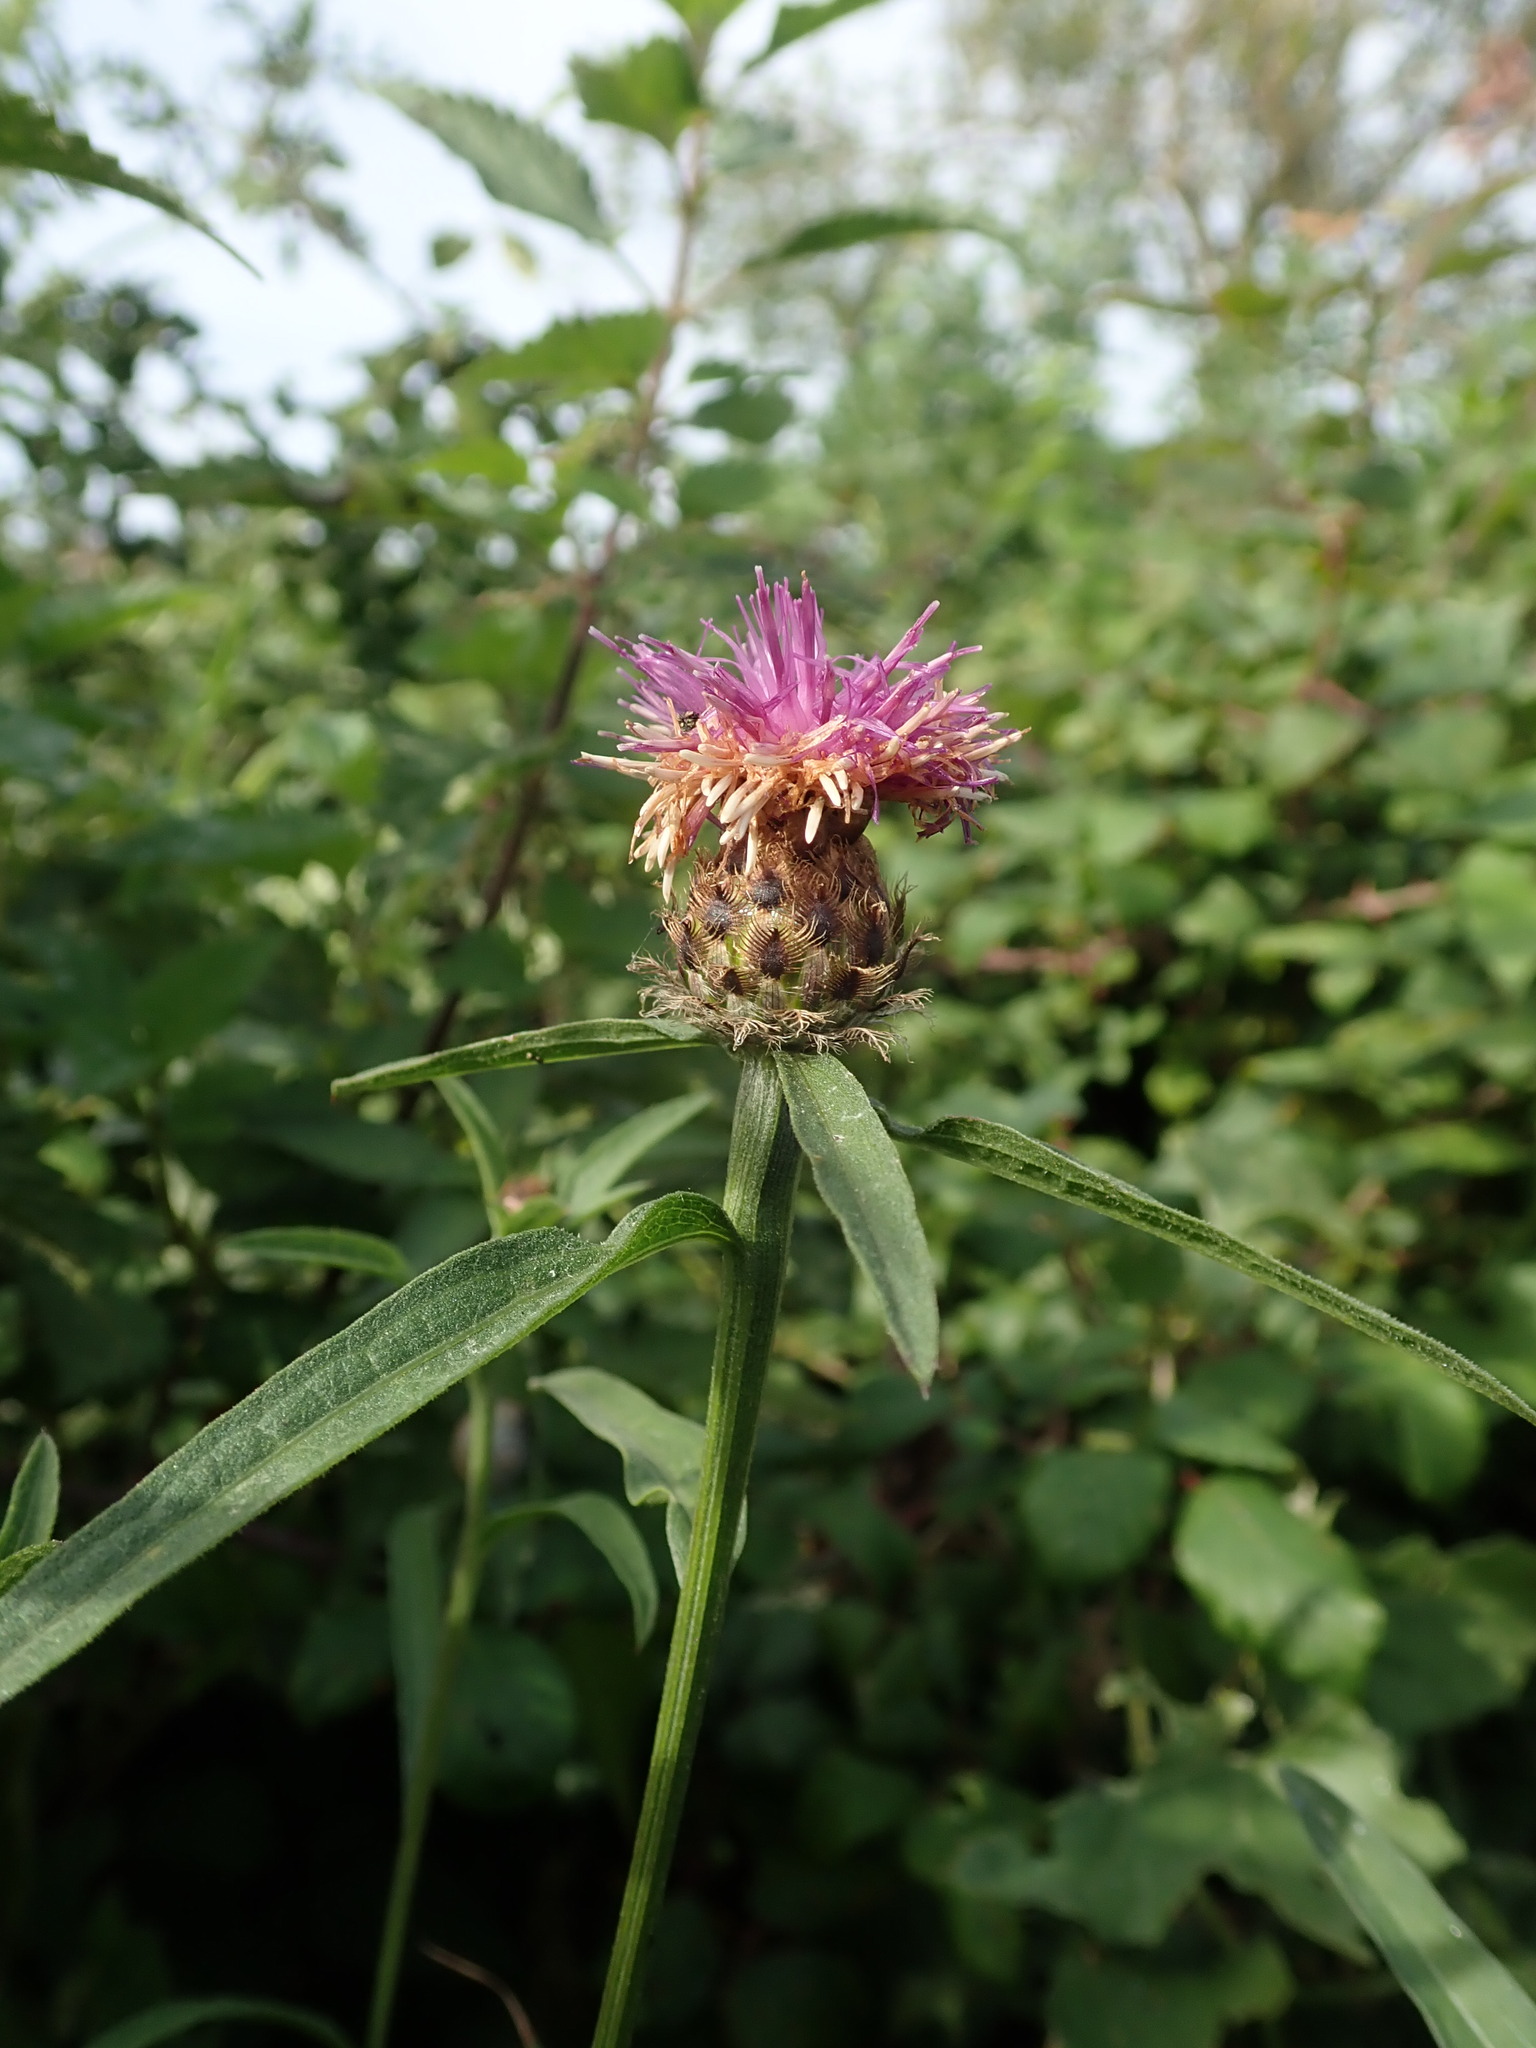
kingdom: Plantae
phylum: Tracheophyta
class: Magnoliopsida
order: Asterales
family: Asteraceae
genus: Centaurea
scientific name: Centaurea debeauxii
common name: Slender knapweed
